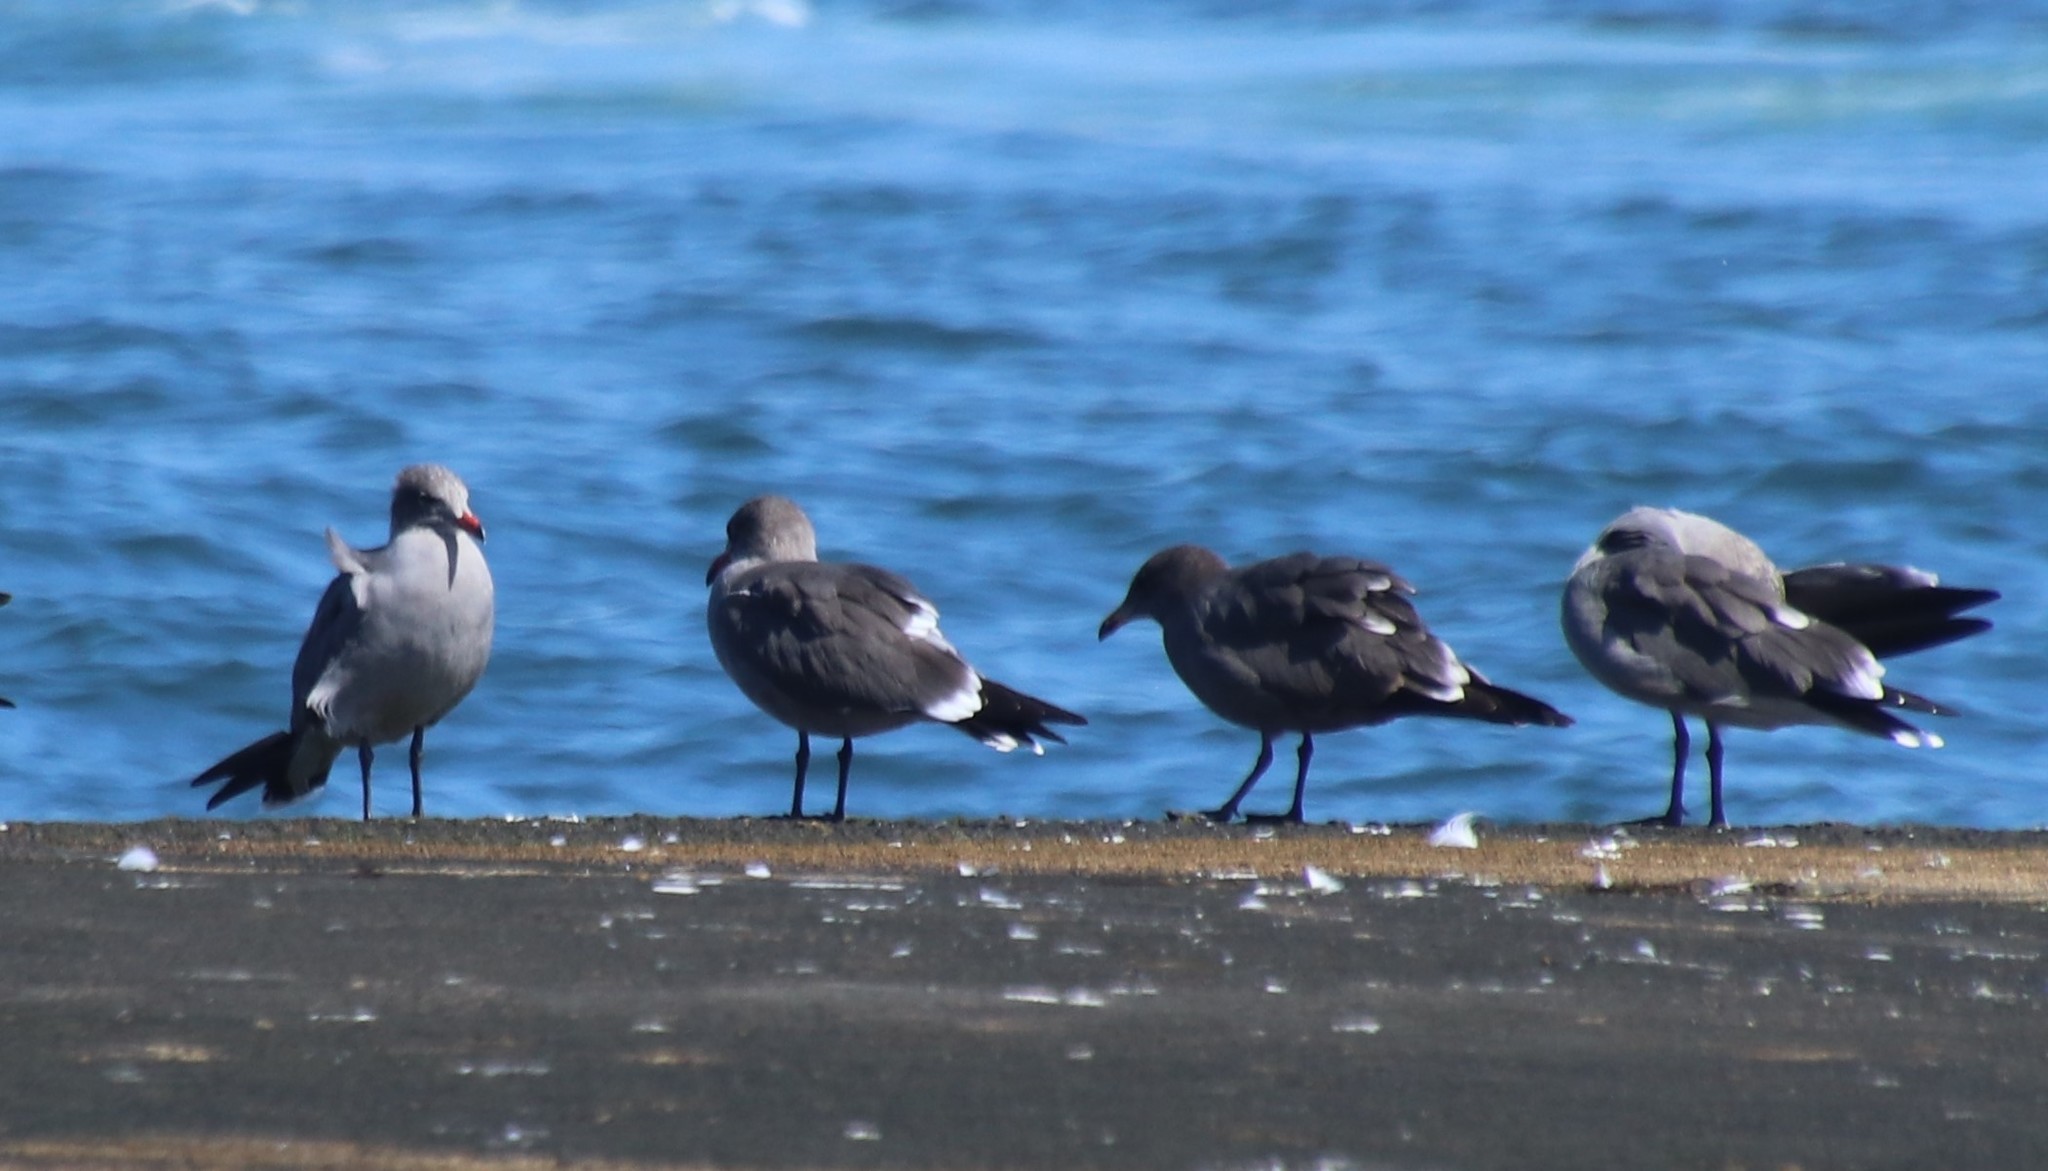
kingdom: Animalia
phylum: Chordata
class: Aves
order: Charadriiformes
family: Laridae
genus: Larus
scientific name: Larus heermanni
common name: Heermann's gull
